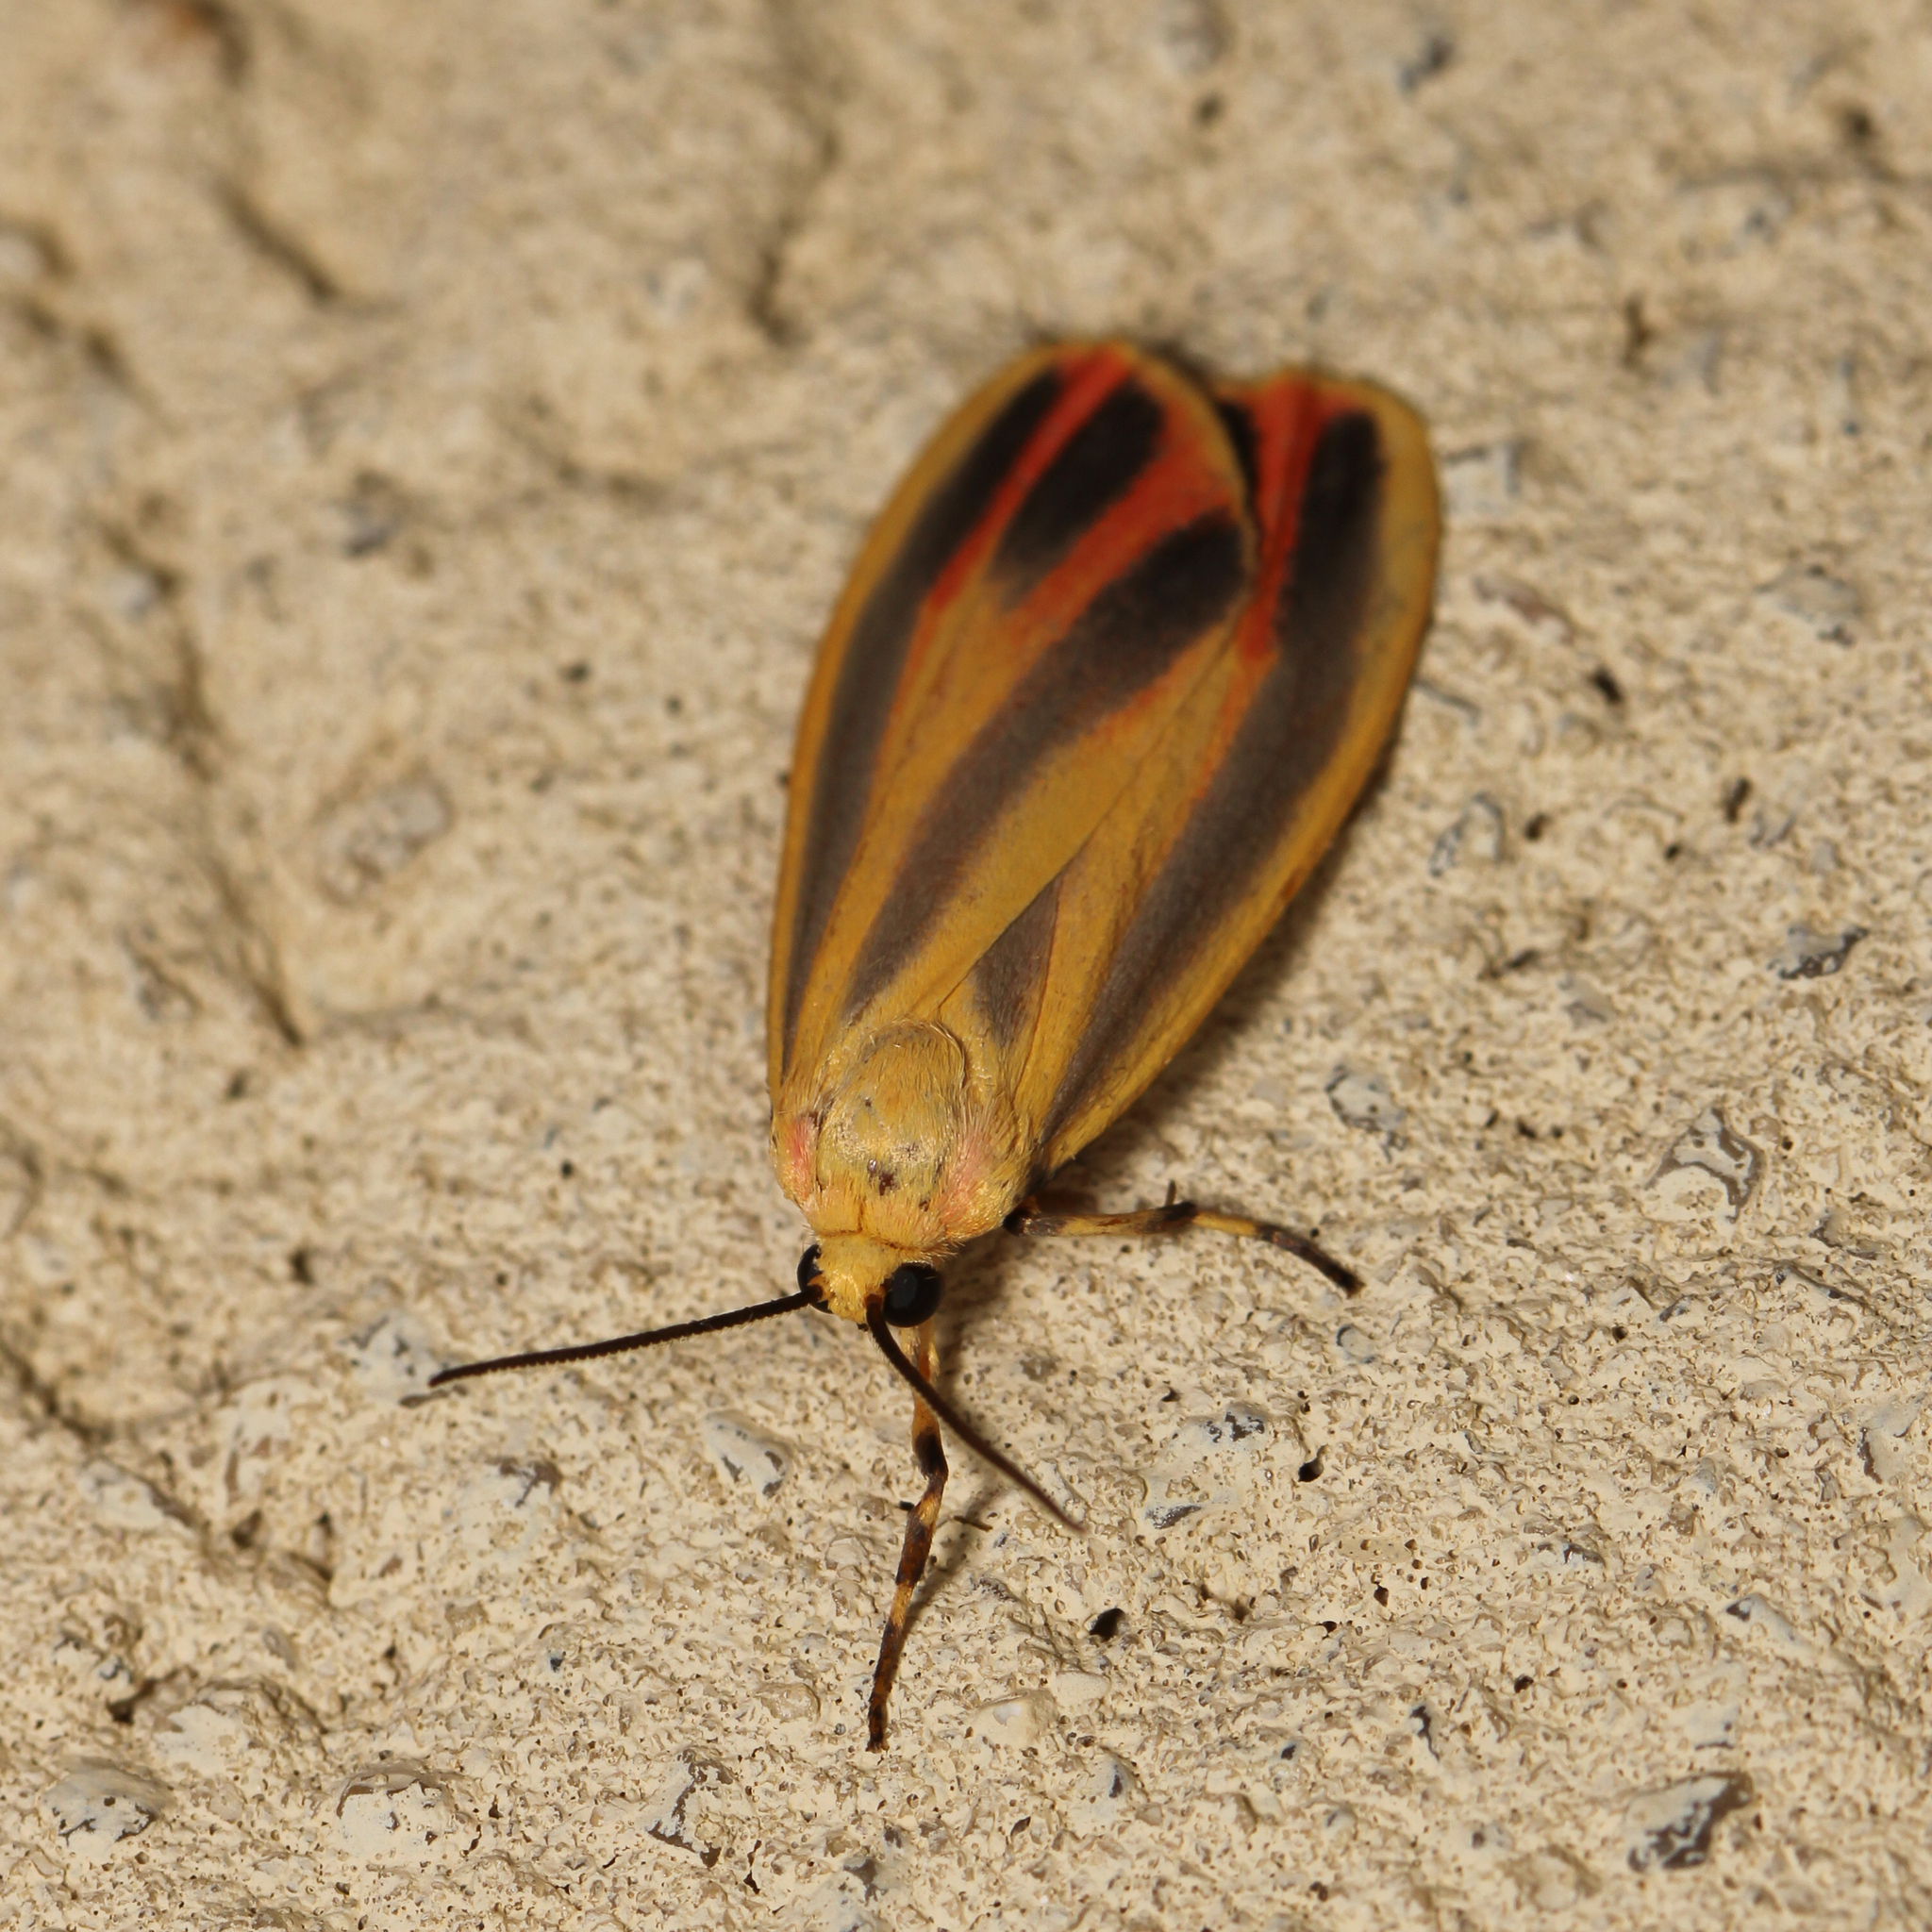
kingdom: Animalia
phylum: Arthropoda
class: Insecta
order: Lepidoptera
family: Erebidae
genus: Hypoprepia
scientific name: Hypoprepia fucosa
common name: Painted lichen moth
